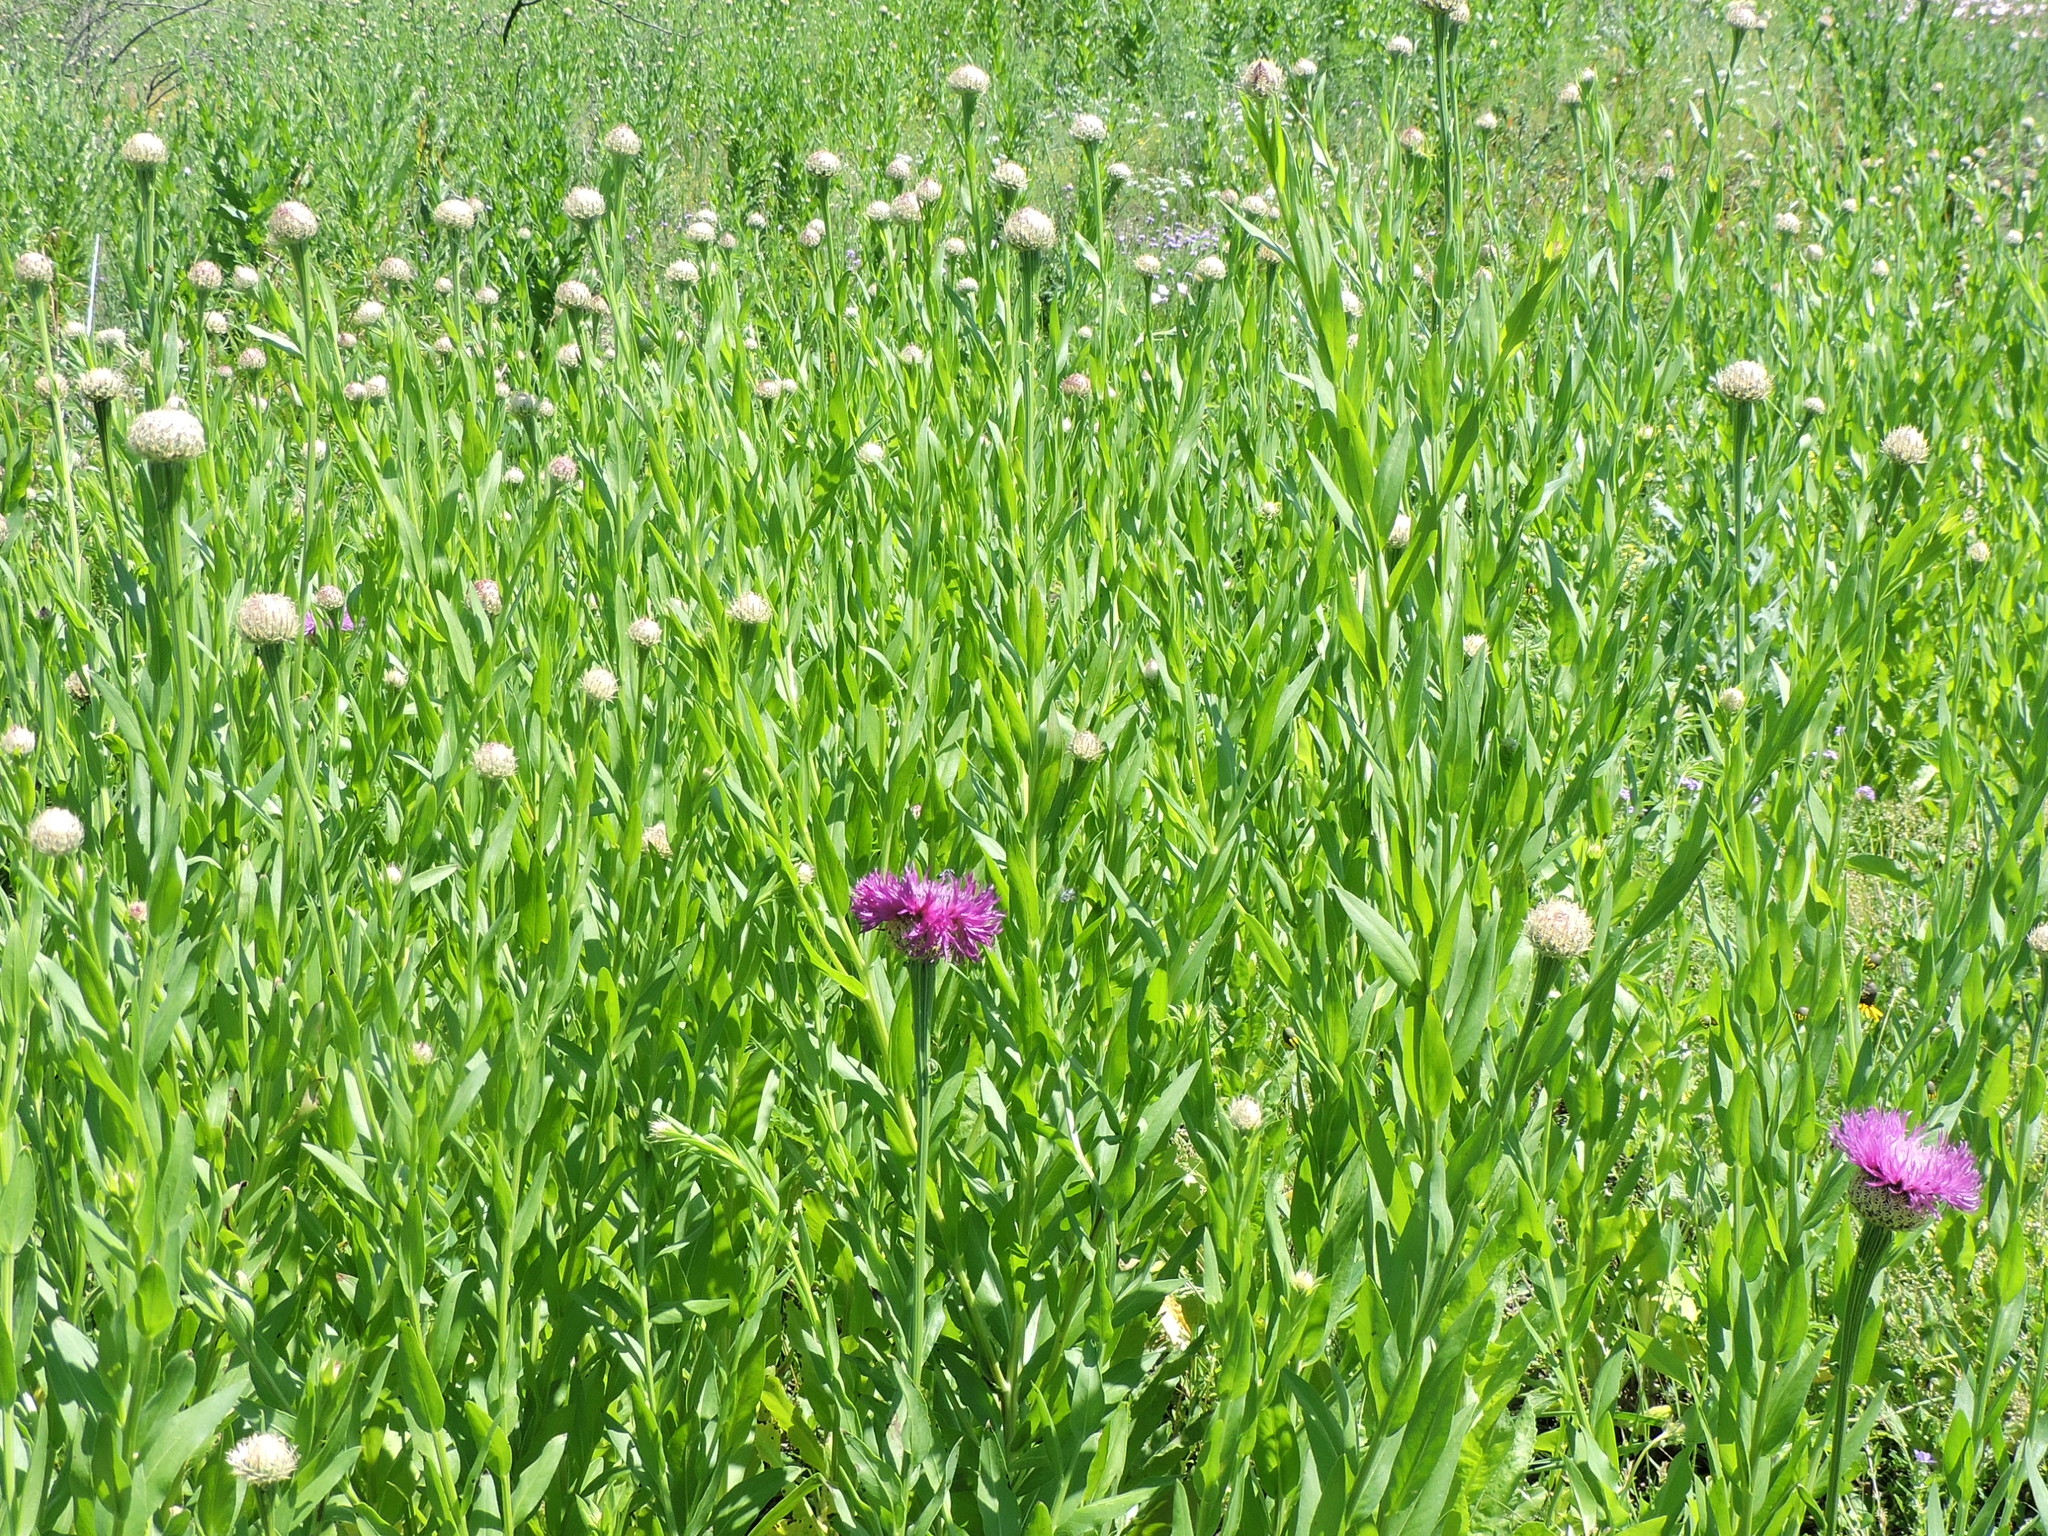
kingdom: Plantae
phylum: Tracheophyta
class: Magnoliopsida
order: Asterales
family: Asteraceae
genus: Plectocephalus
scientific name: Plectocephalus americanus
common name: American basket-flower
